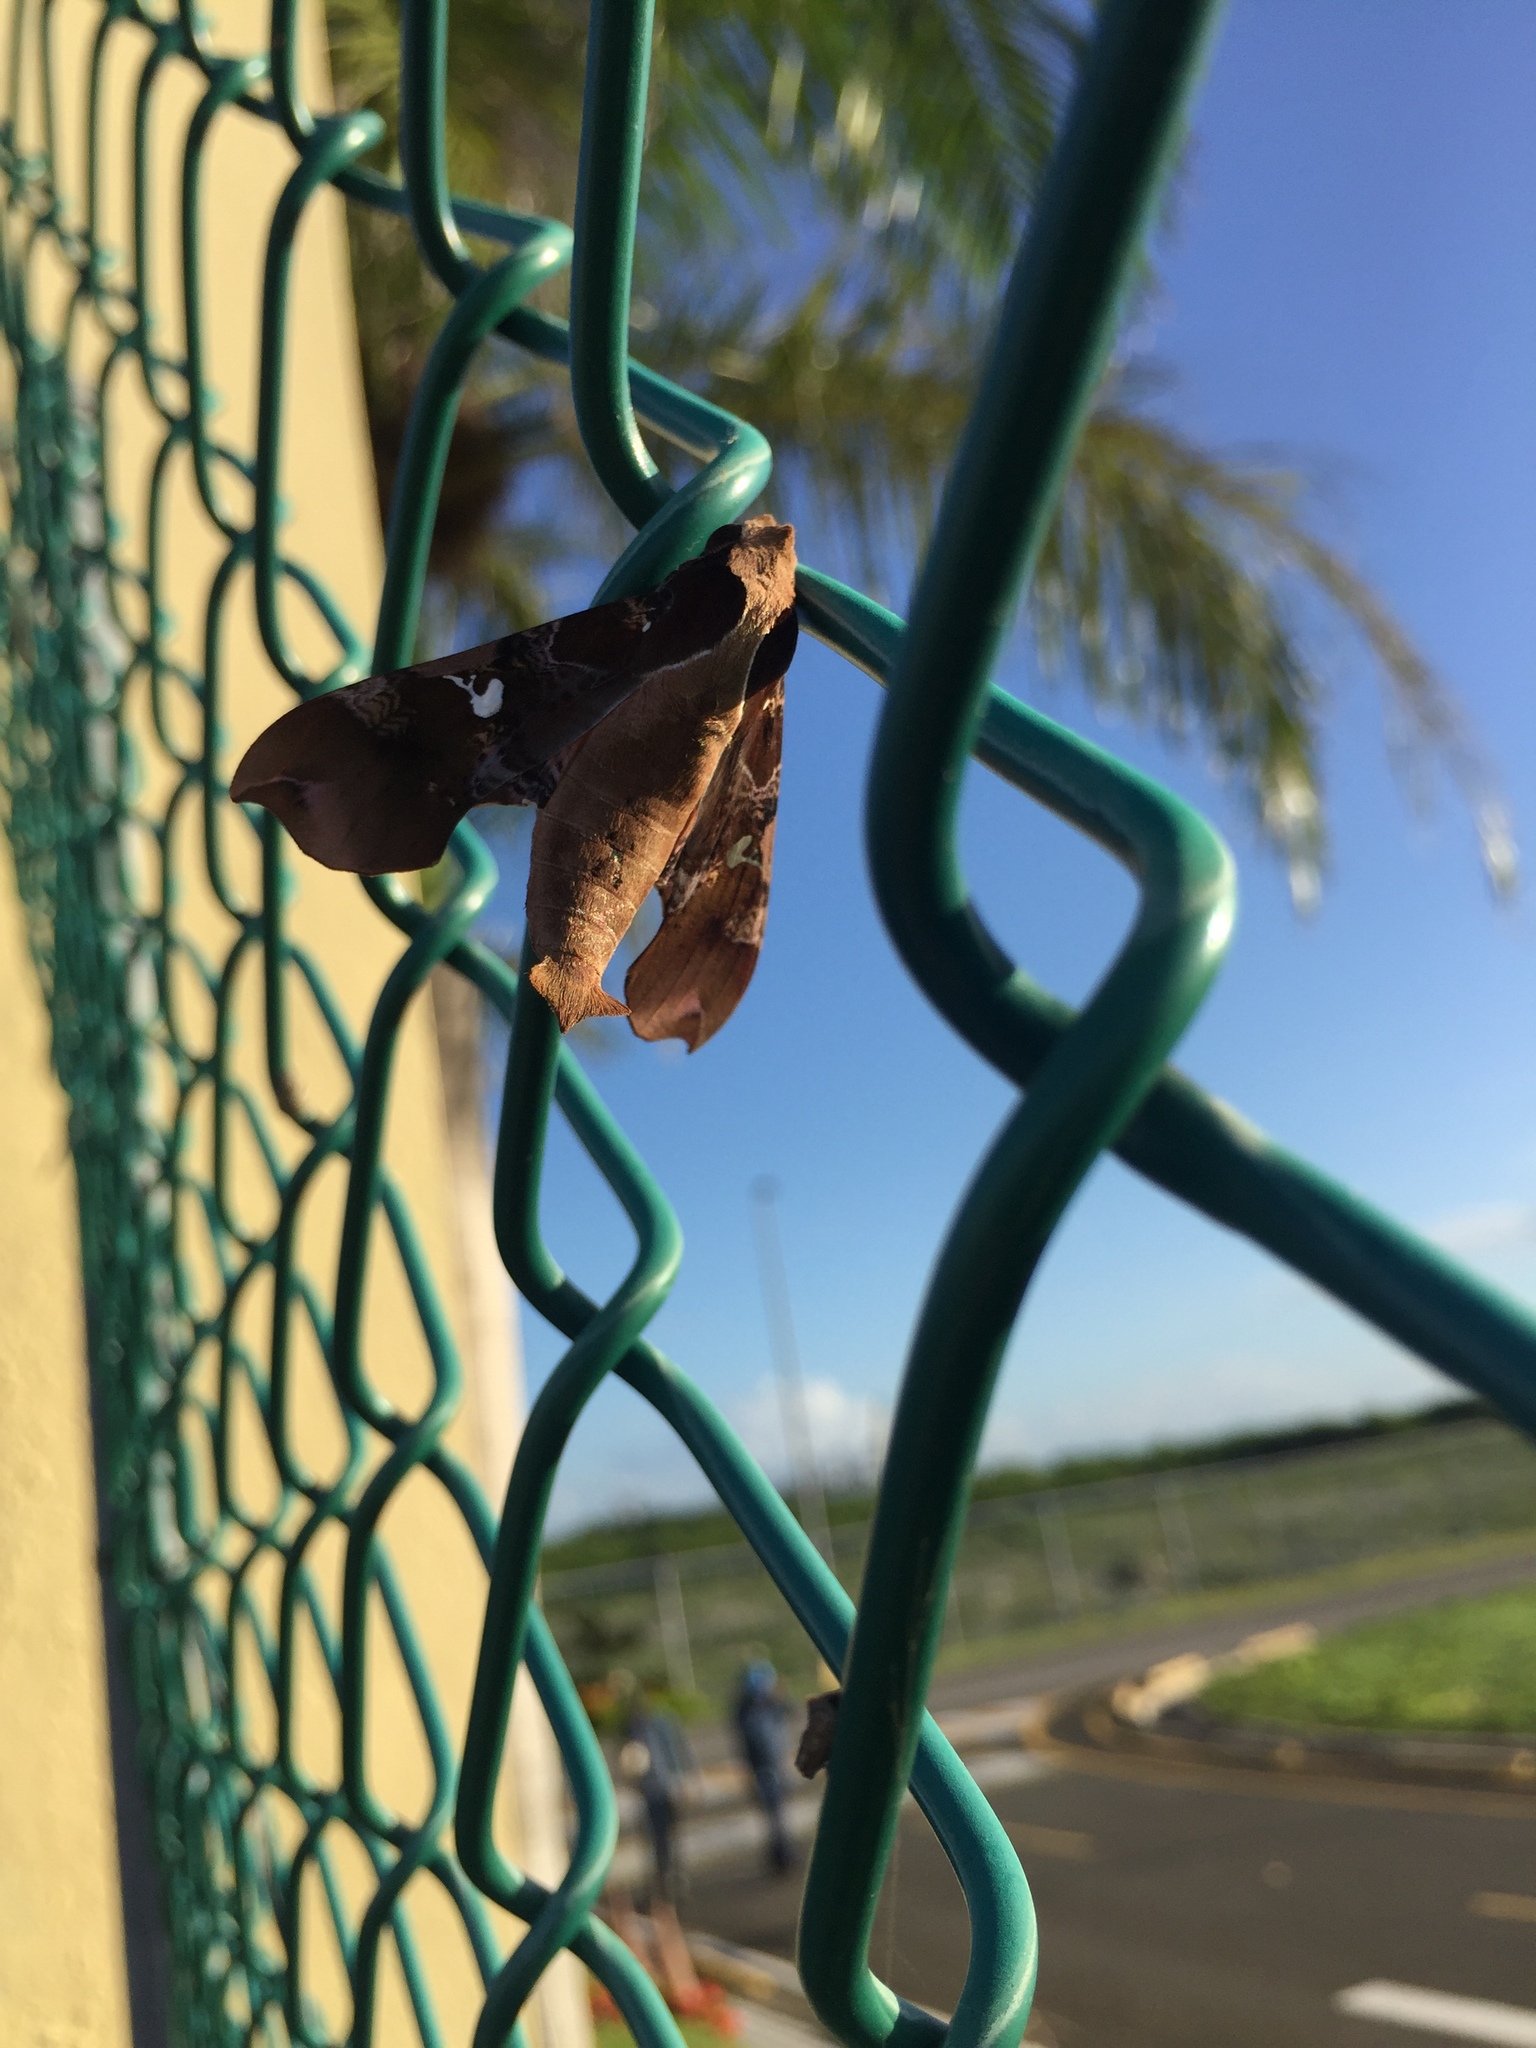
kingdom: Animalia
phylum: Arthropoda
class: Insecta
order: Lepidoptera
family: Sphingidae
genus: Callionima
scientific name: Callionima falcifera
